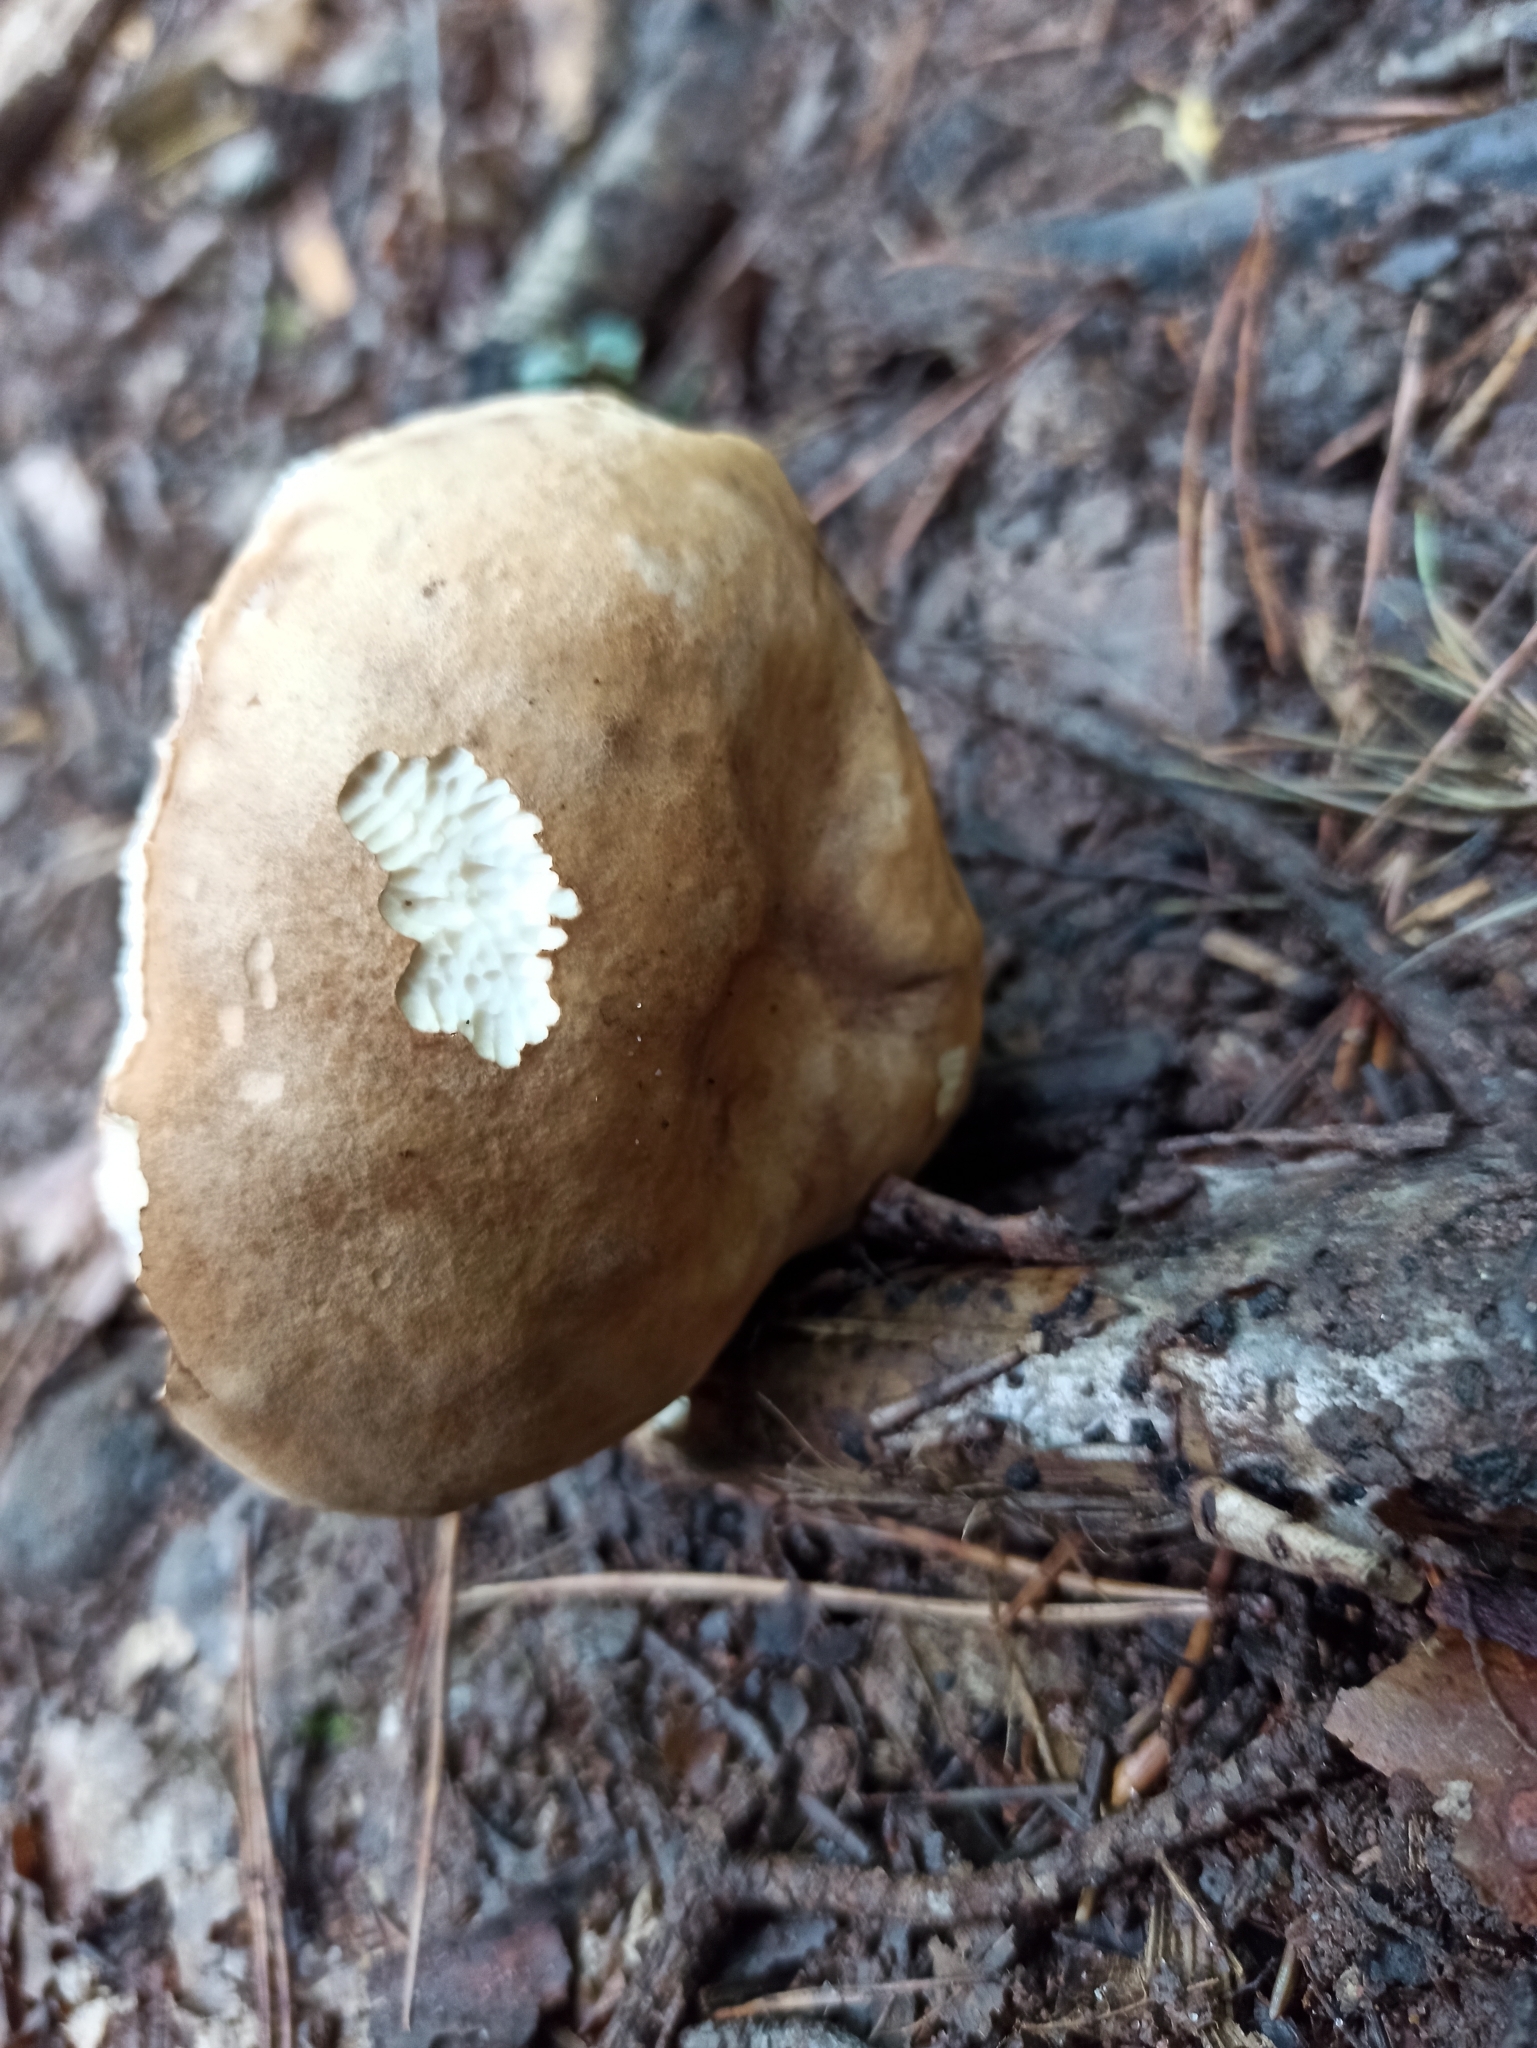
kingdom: Fungi
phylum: Basidiomycota
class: Agaricomycetes
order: Boletales
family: Boletaceae
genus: Tylopilus
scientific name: Tylopilus felleus
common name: Bitter bolete
